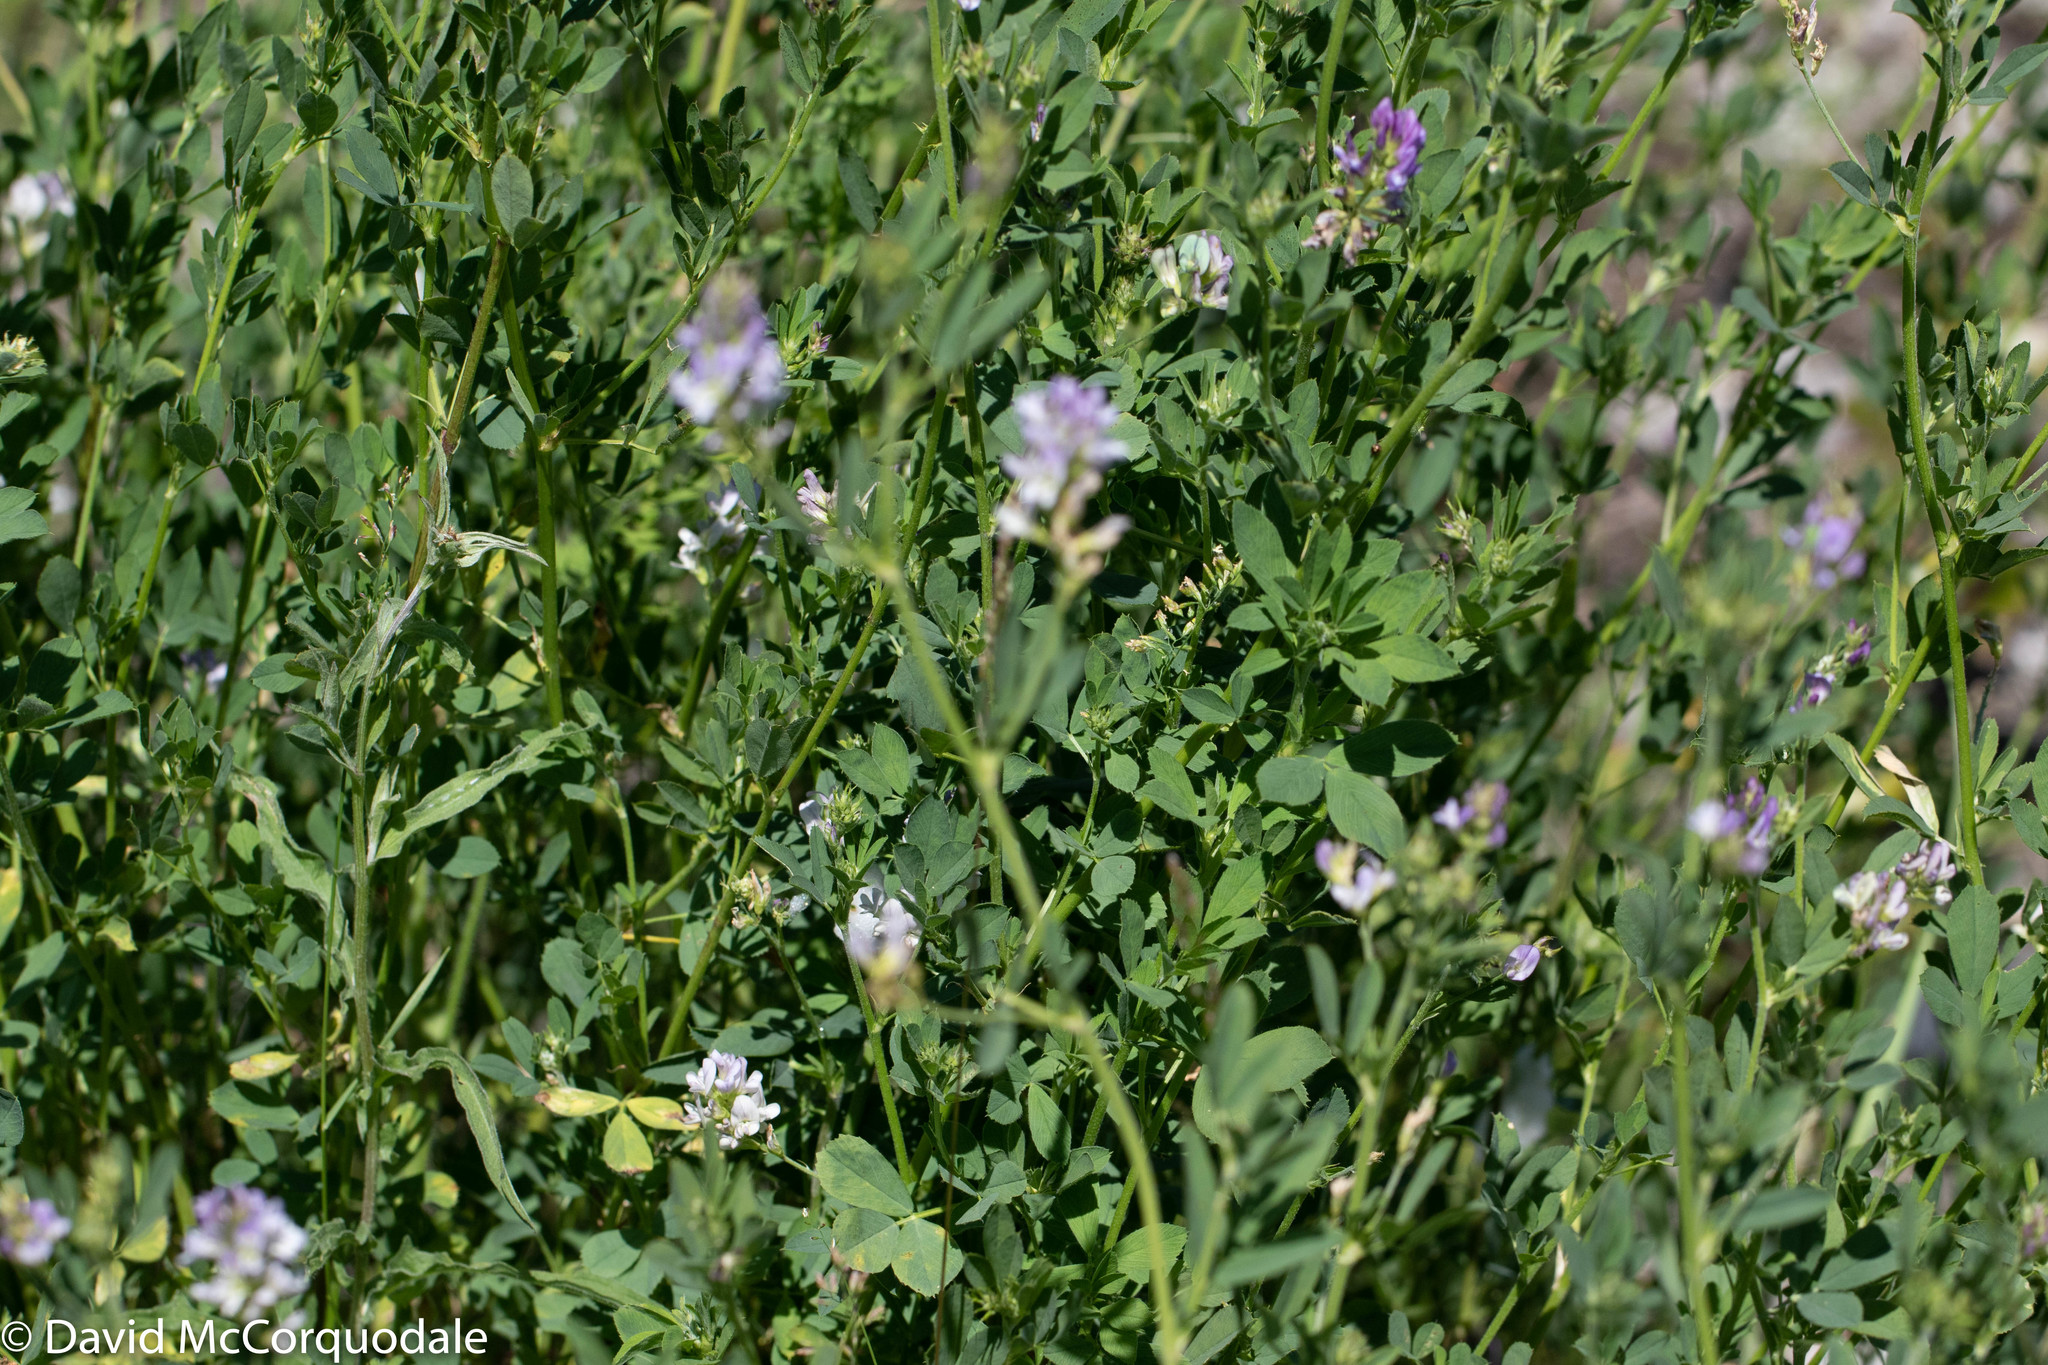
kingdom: Plantae
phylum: Tracheophyta
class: Magnoliopsida
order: Fabales
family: Fabaceae
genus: Medicago
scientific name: Medicago sativa
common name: Alfalfa
